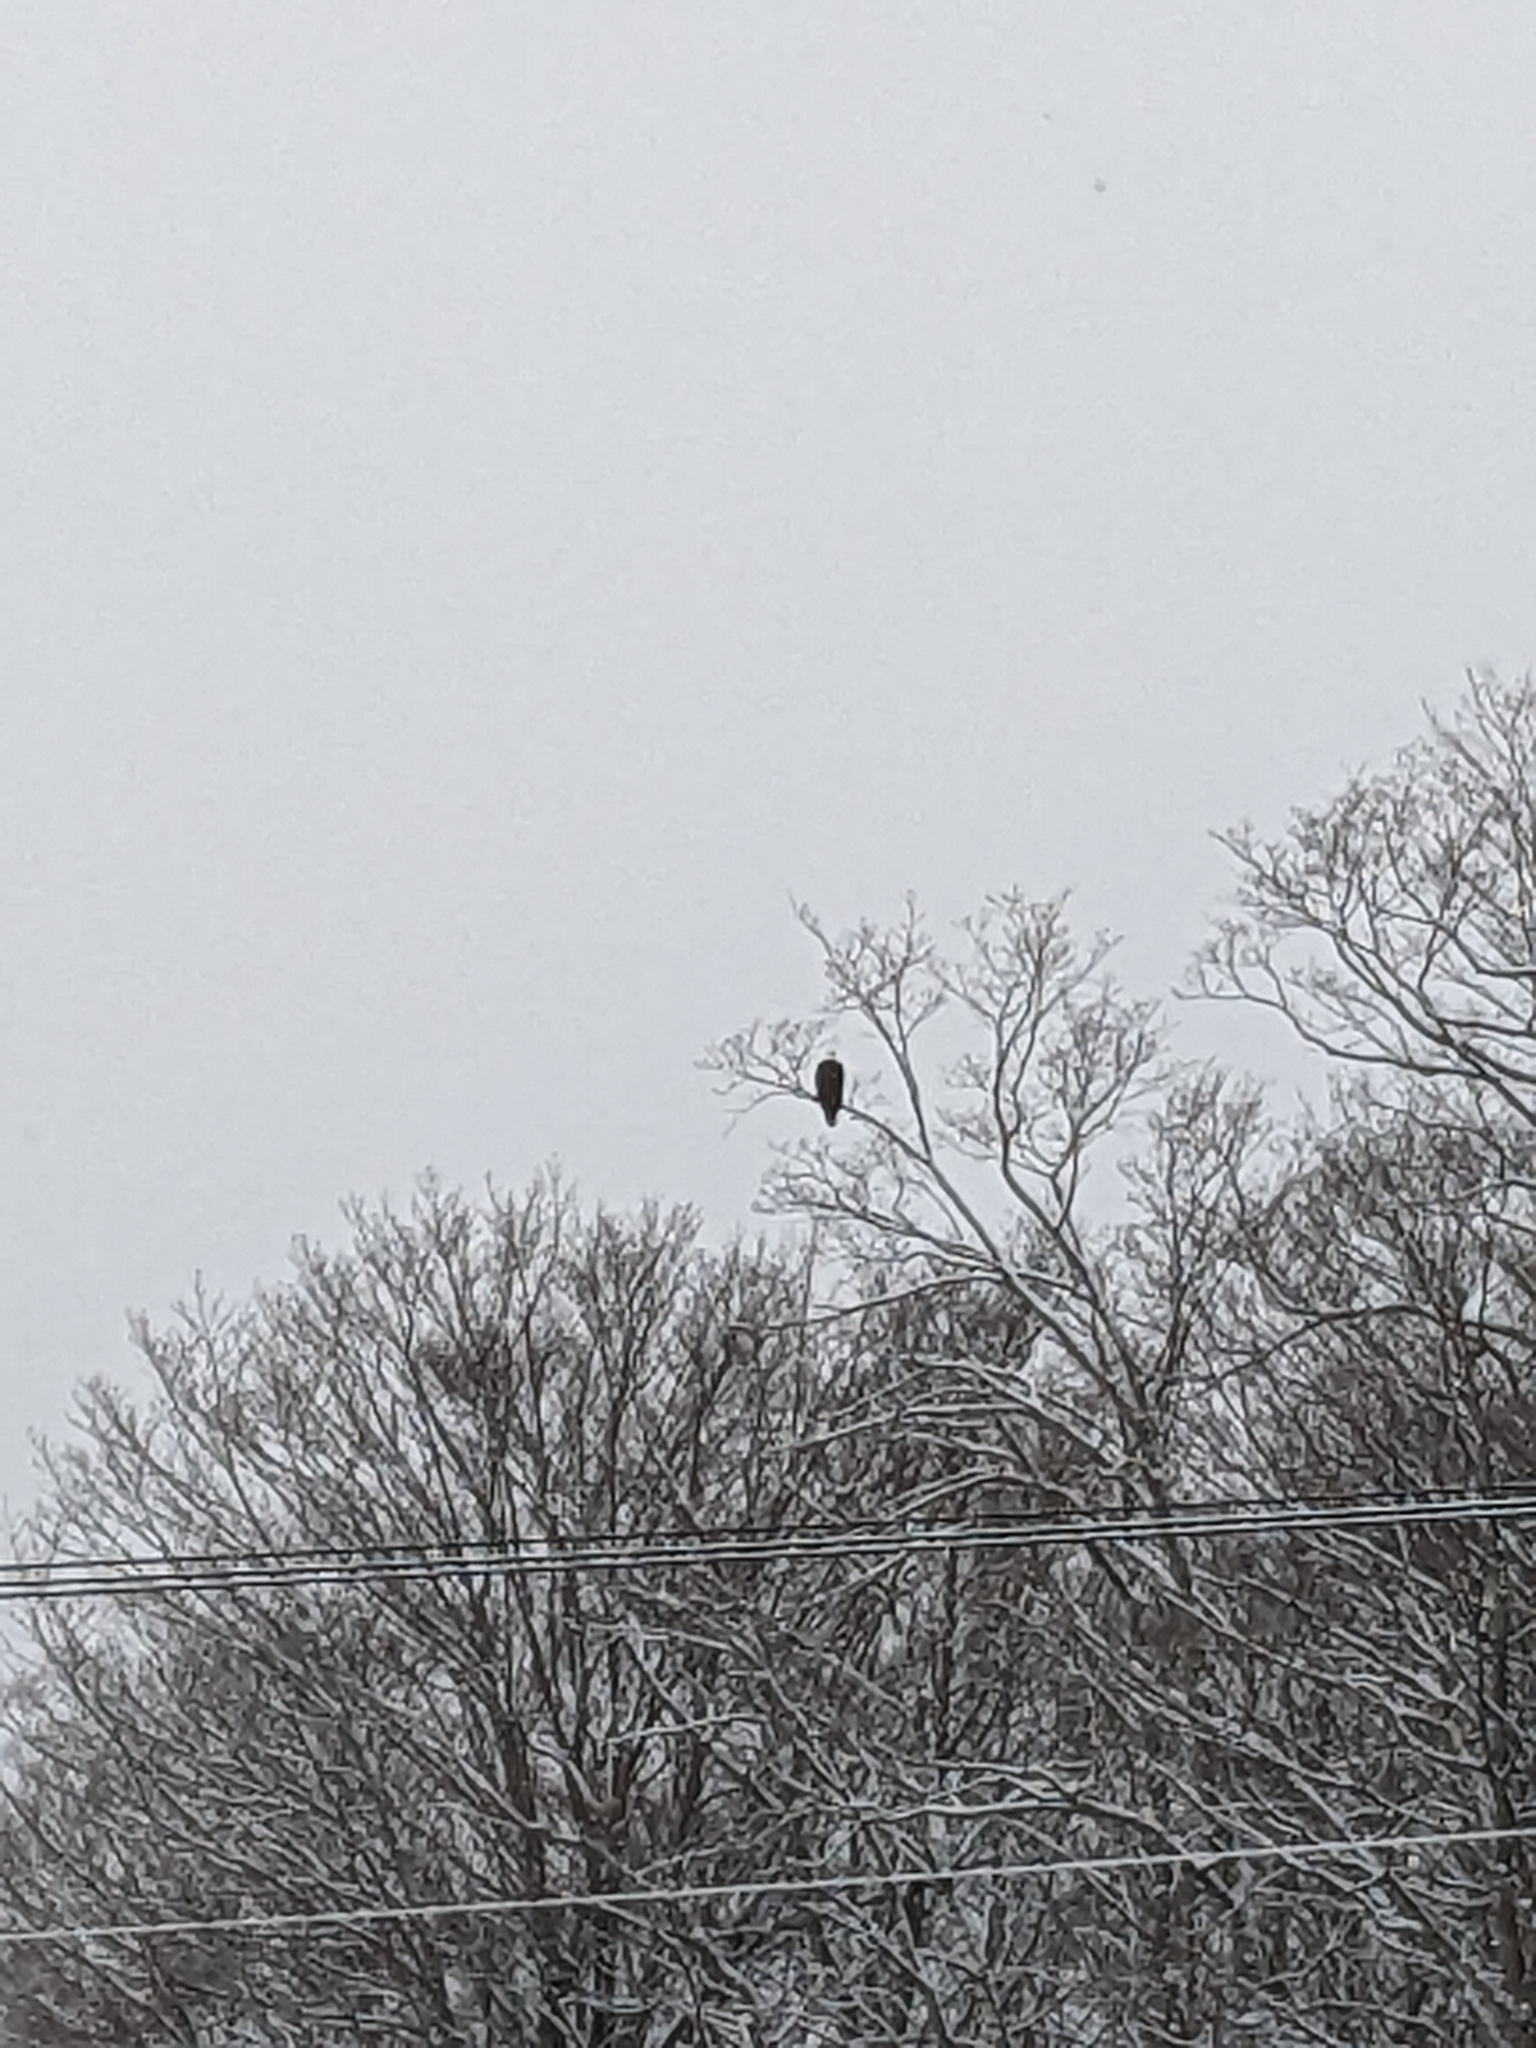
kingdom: Animalia
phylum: Chordata
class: Aves
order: Accipitriformes
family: Accipitridae
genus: Haliaeetus
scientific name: Haliaeetus leucocephalus
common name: Bald eagle
